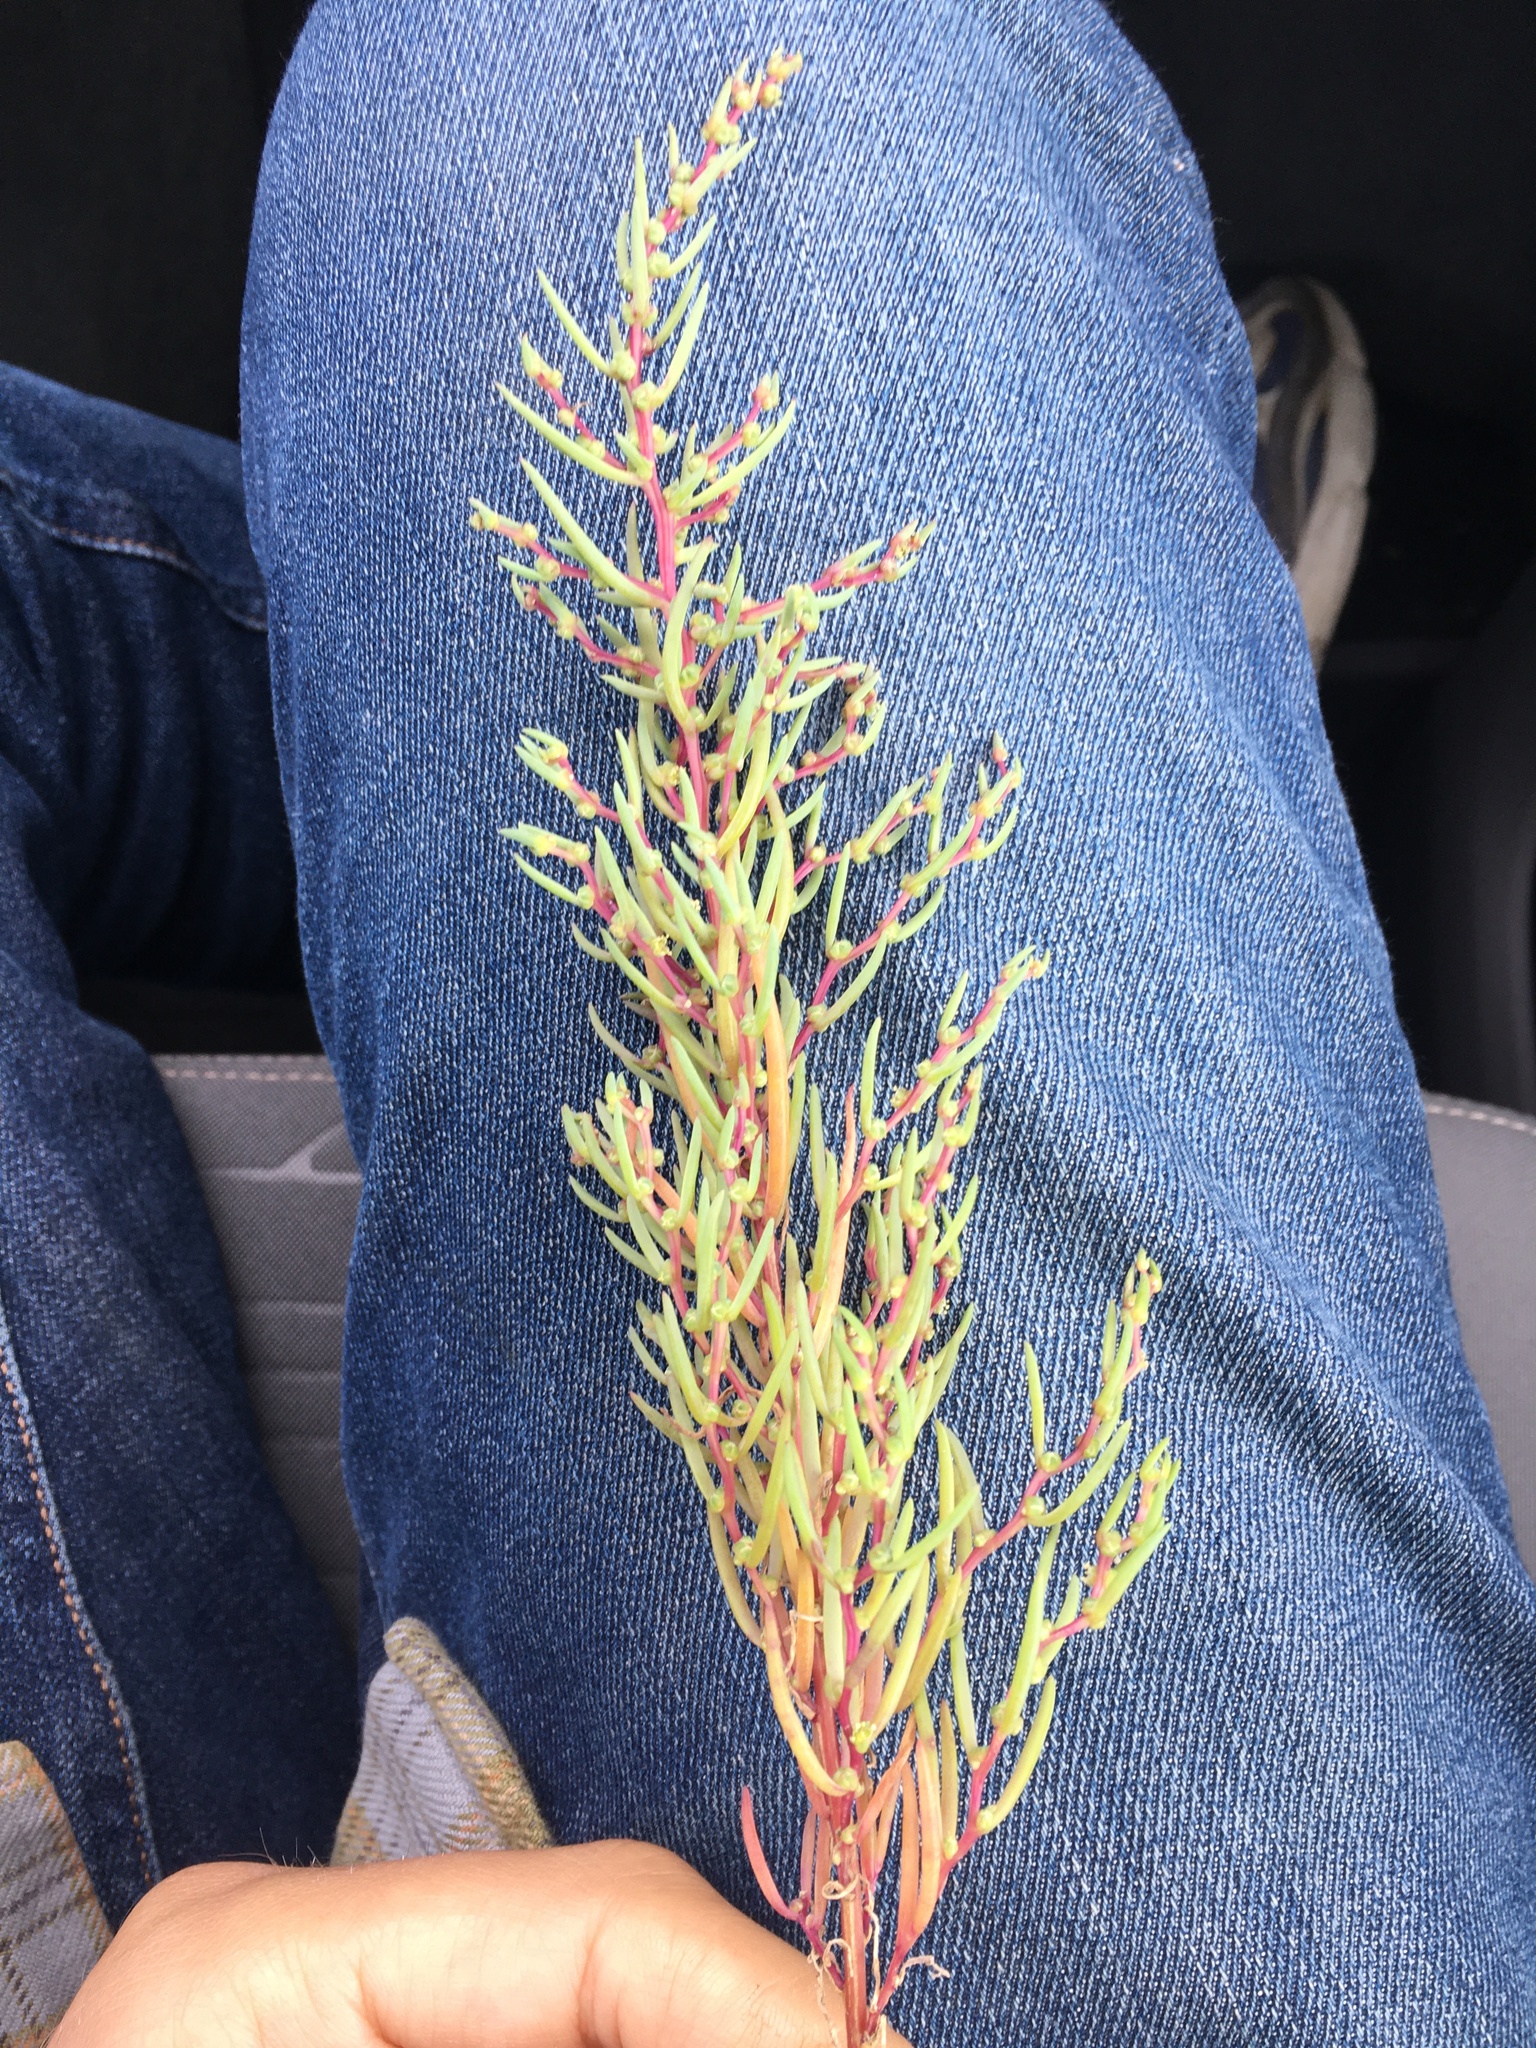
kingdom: Plantae
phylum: Tracheophyta
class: Magnoliopsida
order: Caryophyllales
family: Amaranthaceae
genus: Suaeda
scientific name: Suaeda maritima
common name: Annual sea-blite
